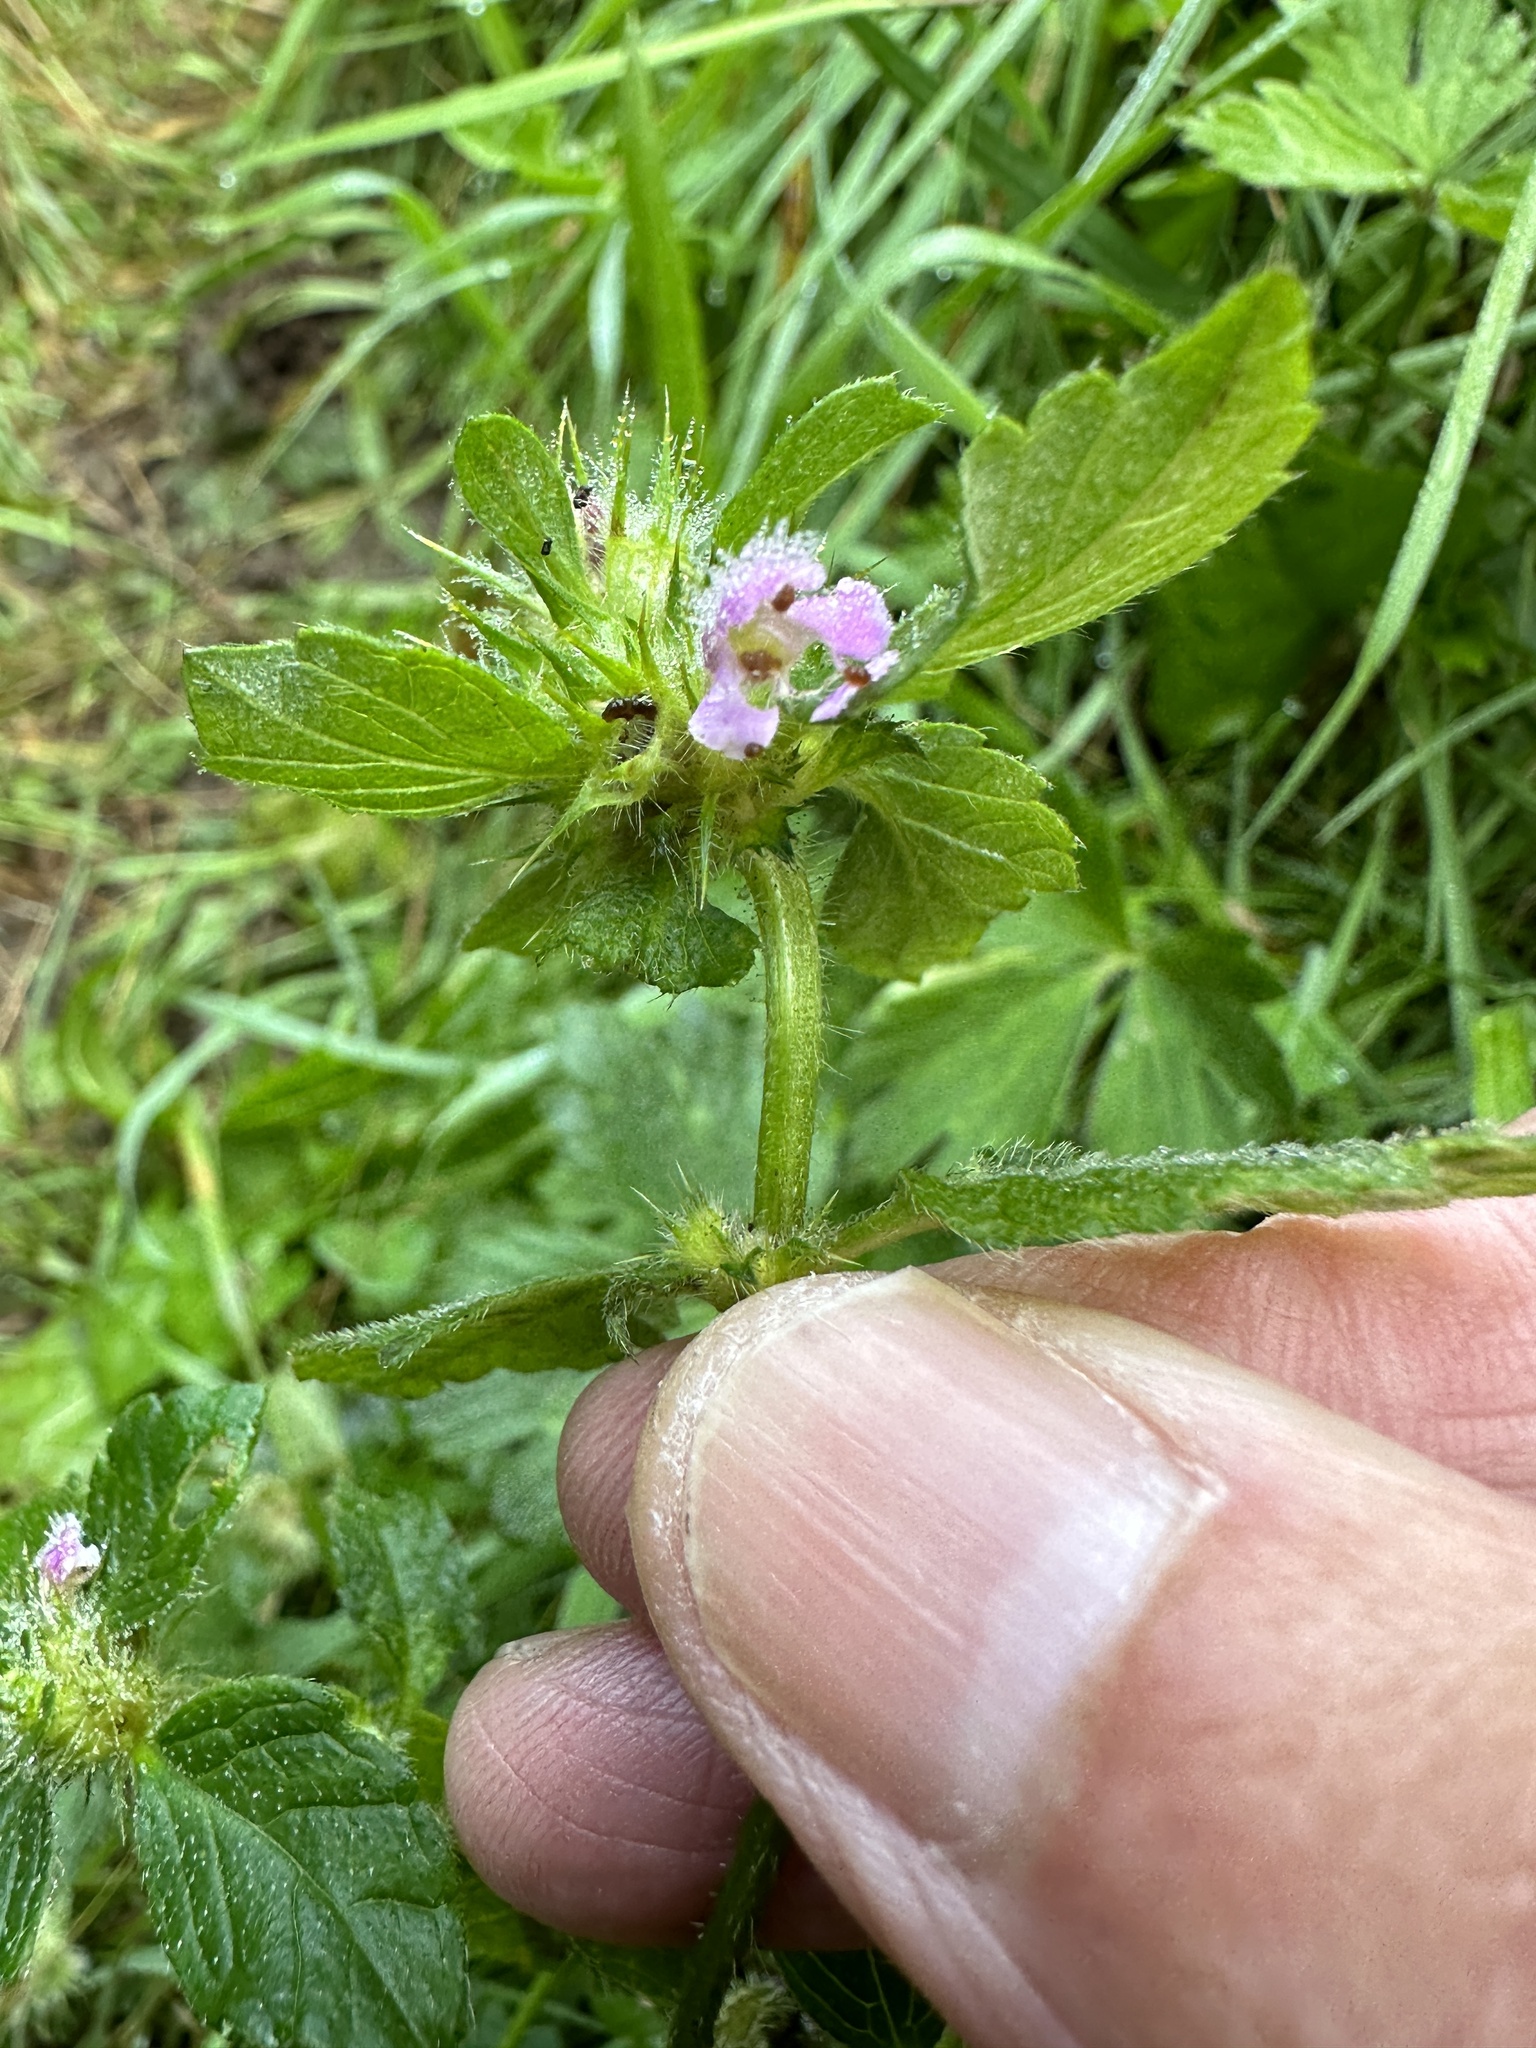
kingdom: Plantae
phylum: Tracheophyta
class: Magnoliopsida
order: Lamiales
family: Lamiaceae
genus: Galeopsis
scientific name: Galeopsis tetrahit
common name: Common hemp-nettle
